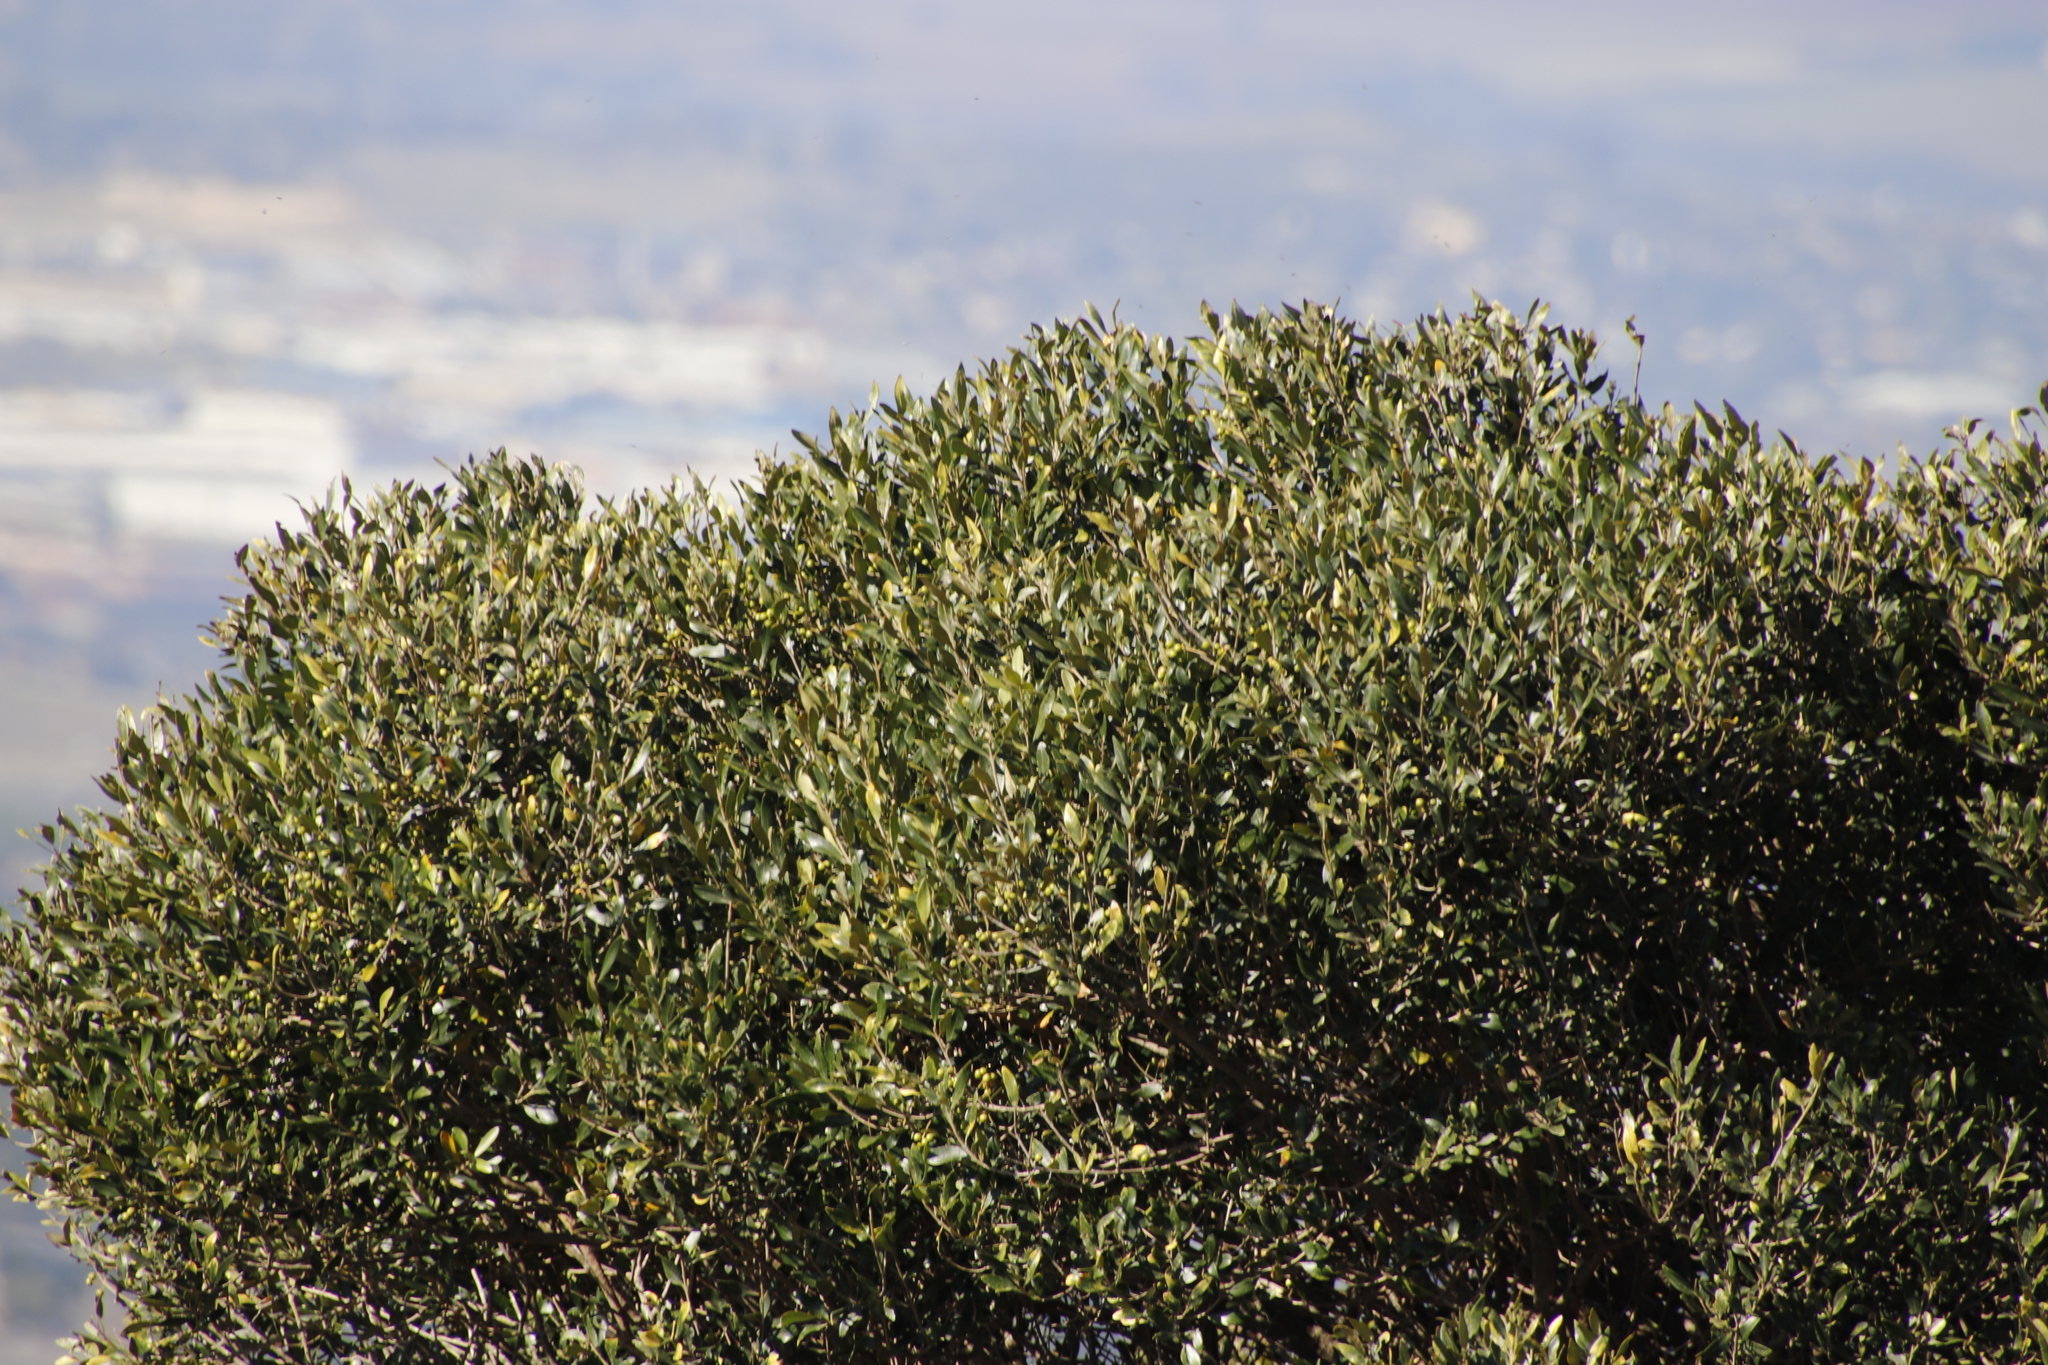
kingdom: Plantae
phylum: Tracheophyta
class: Magnoliopsida
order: Lamiales
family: Oleaceae
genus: Olea
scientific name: Olea europaea
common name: Olive
